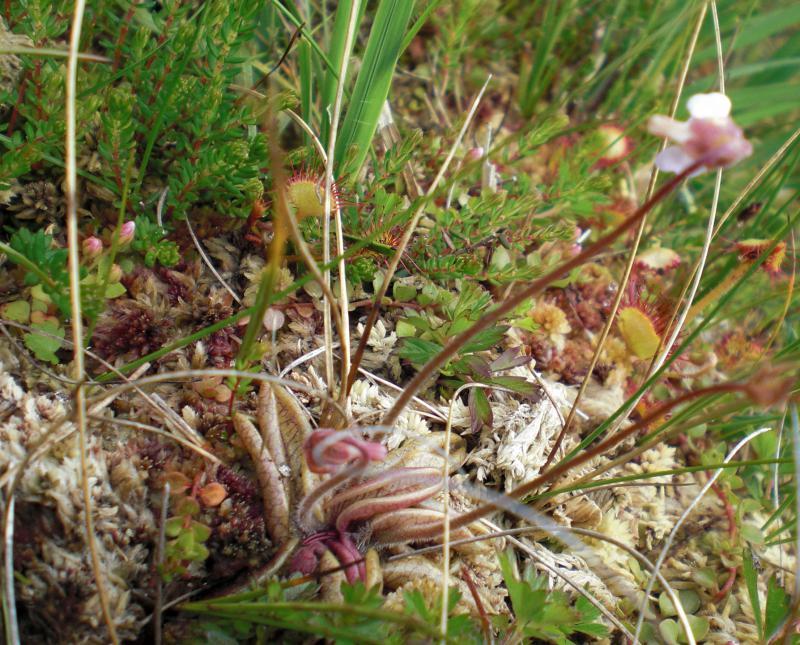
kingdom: Plantae
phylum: Tracheophyta
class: Magnoliopsida
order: Lamiales
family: Lentibulariaceae
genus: Pinguicula
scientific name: Pinguicula lusitanica
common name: Pale butterwort
